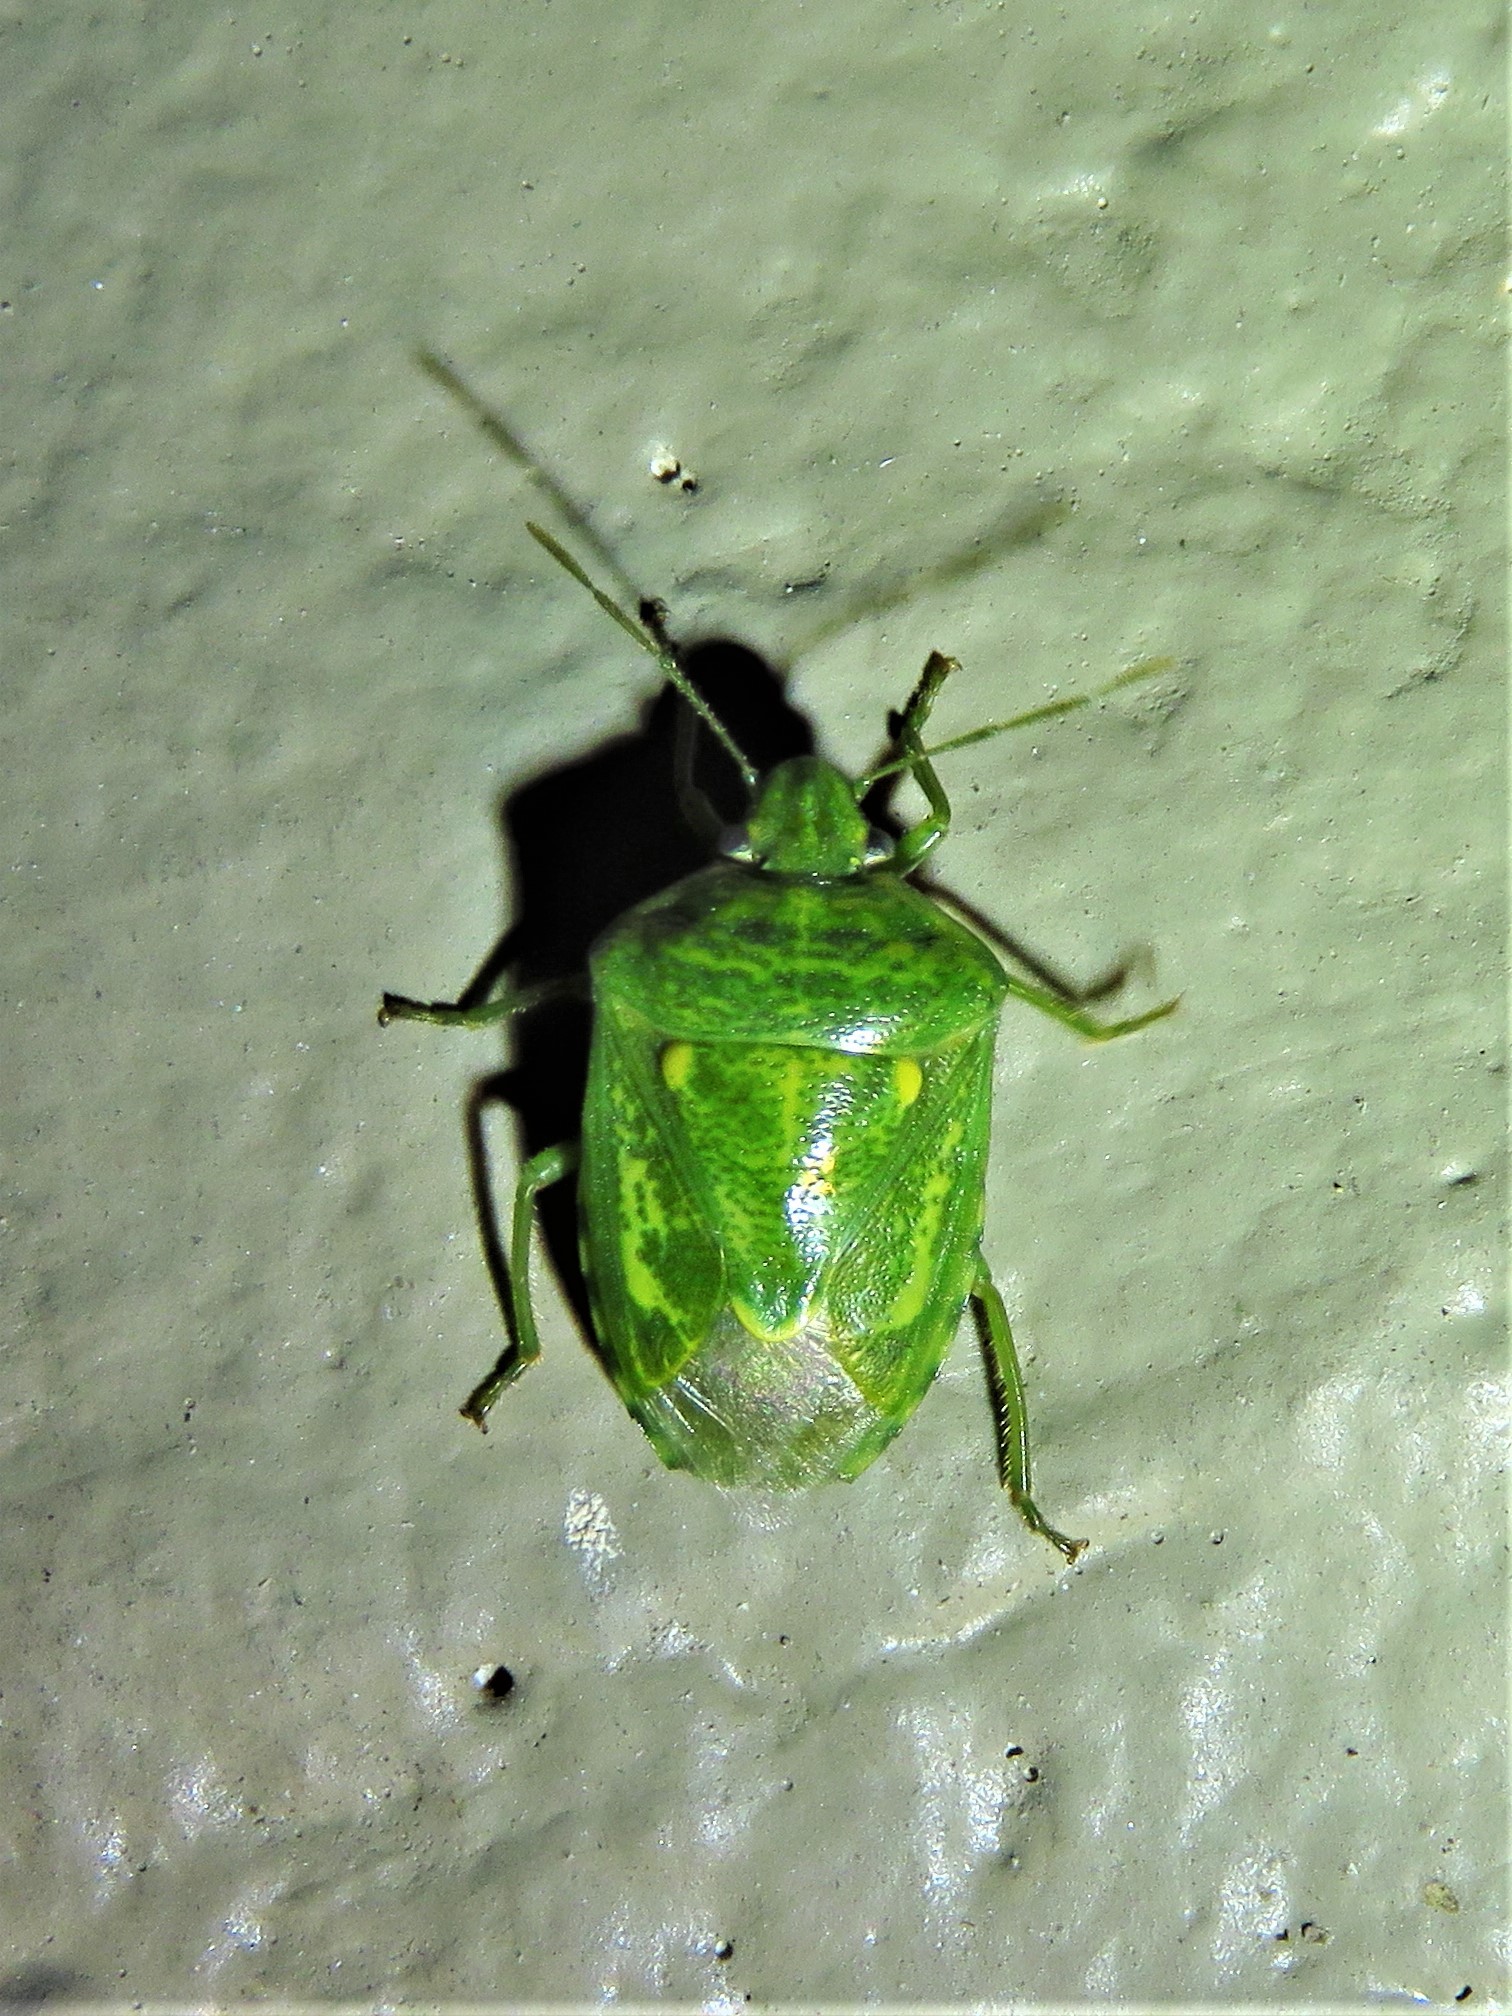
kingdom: Animalia
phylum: Arthropoda
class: Insecta
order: Hemiptera
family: Pentatomidae
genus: Banasa
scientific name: Banasa euchlora
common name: Cedar berry bug
